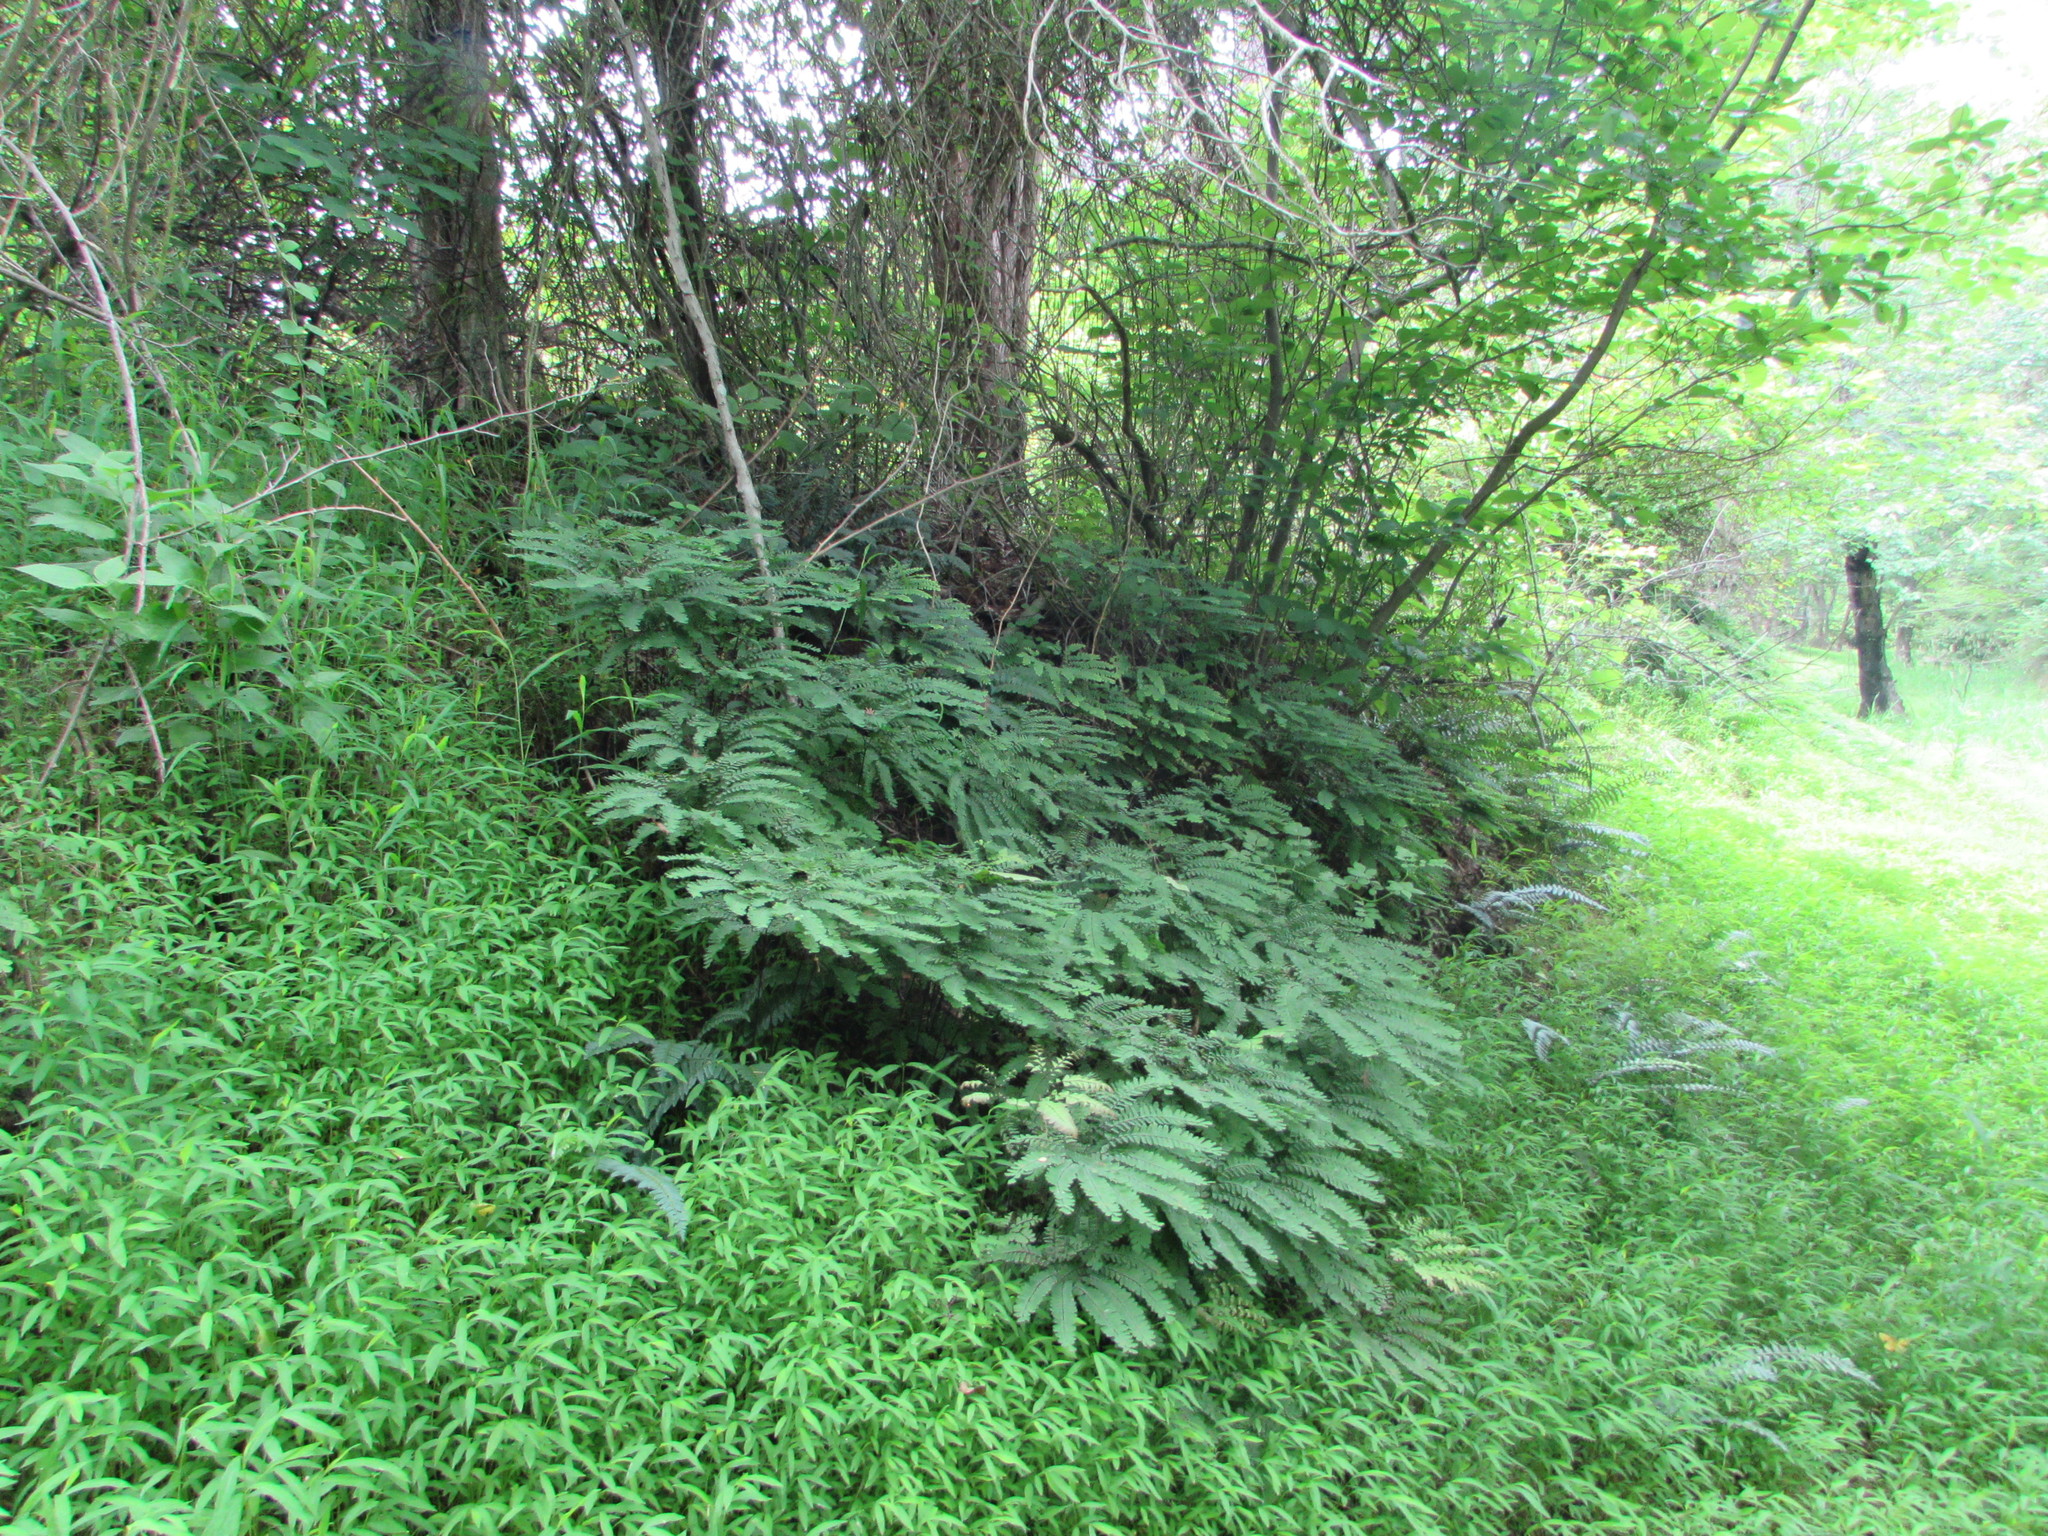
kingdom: Plantae
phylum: Tracheophyta
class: Polypodiopsida
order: Polypodiales
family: Pteridaceae
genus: Adiantum
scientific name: Adiantum pedatum
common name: Five-finger fern
